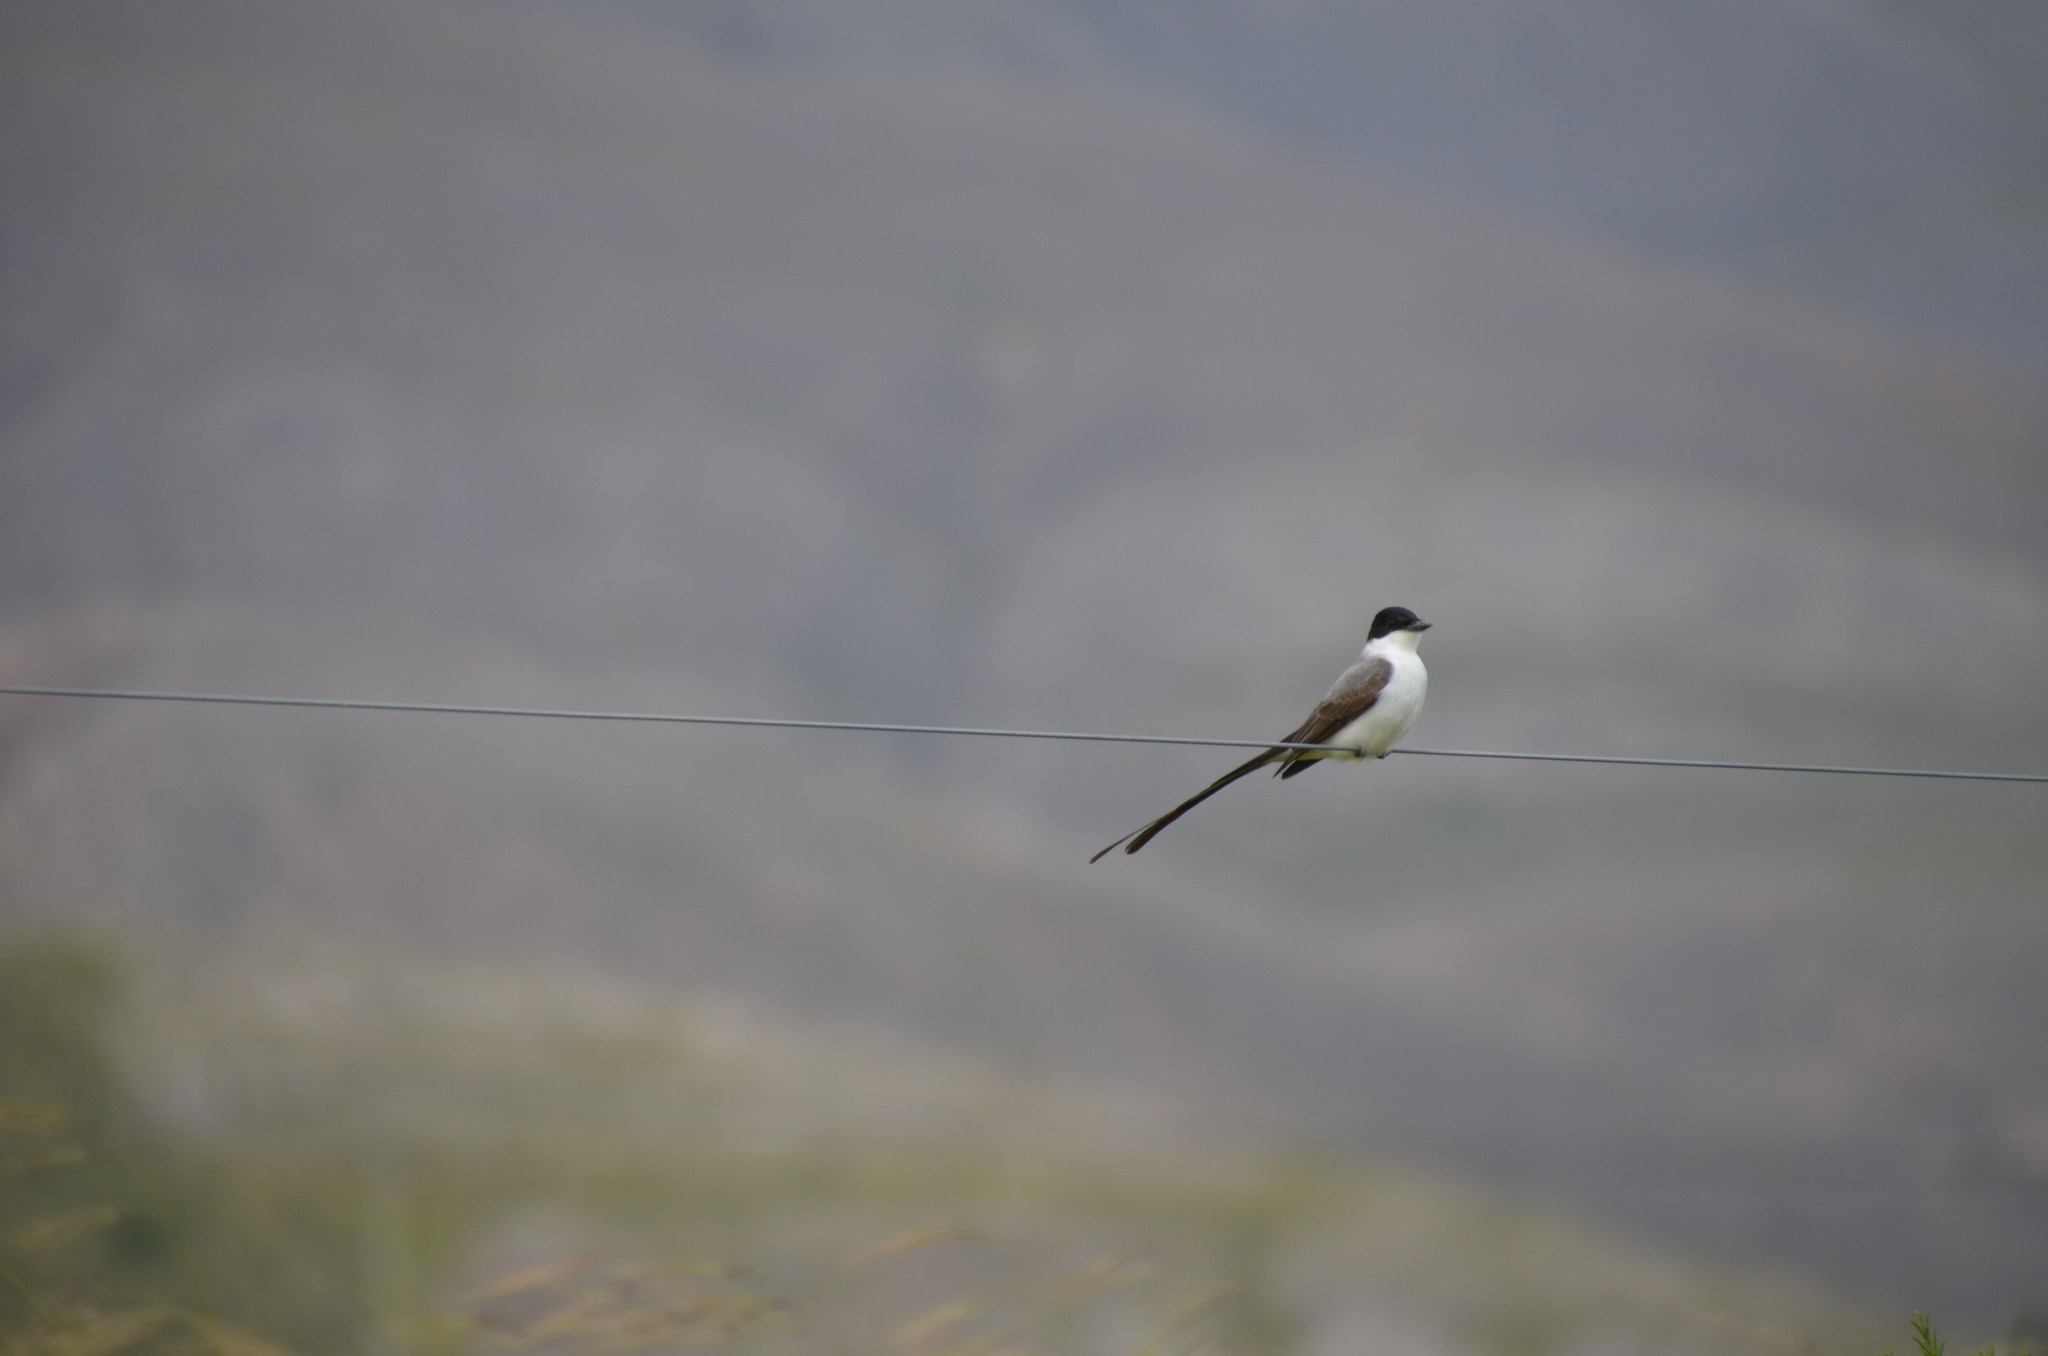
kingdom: Animalia
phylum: Chordata
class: Aves
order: Passeriformes
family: Tyrannidae
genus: Tyrannus
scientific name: Tyrannus savana
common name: Fork-tailed flycatcher
